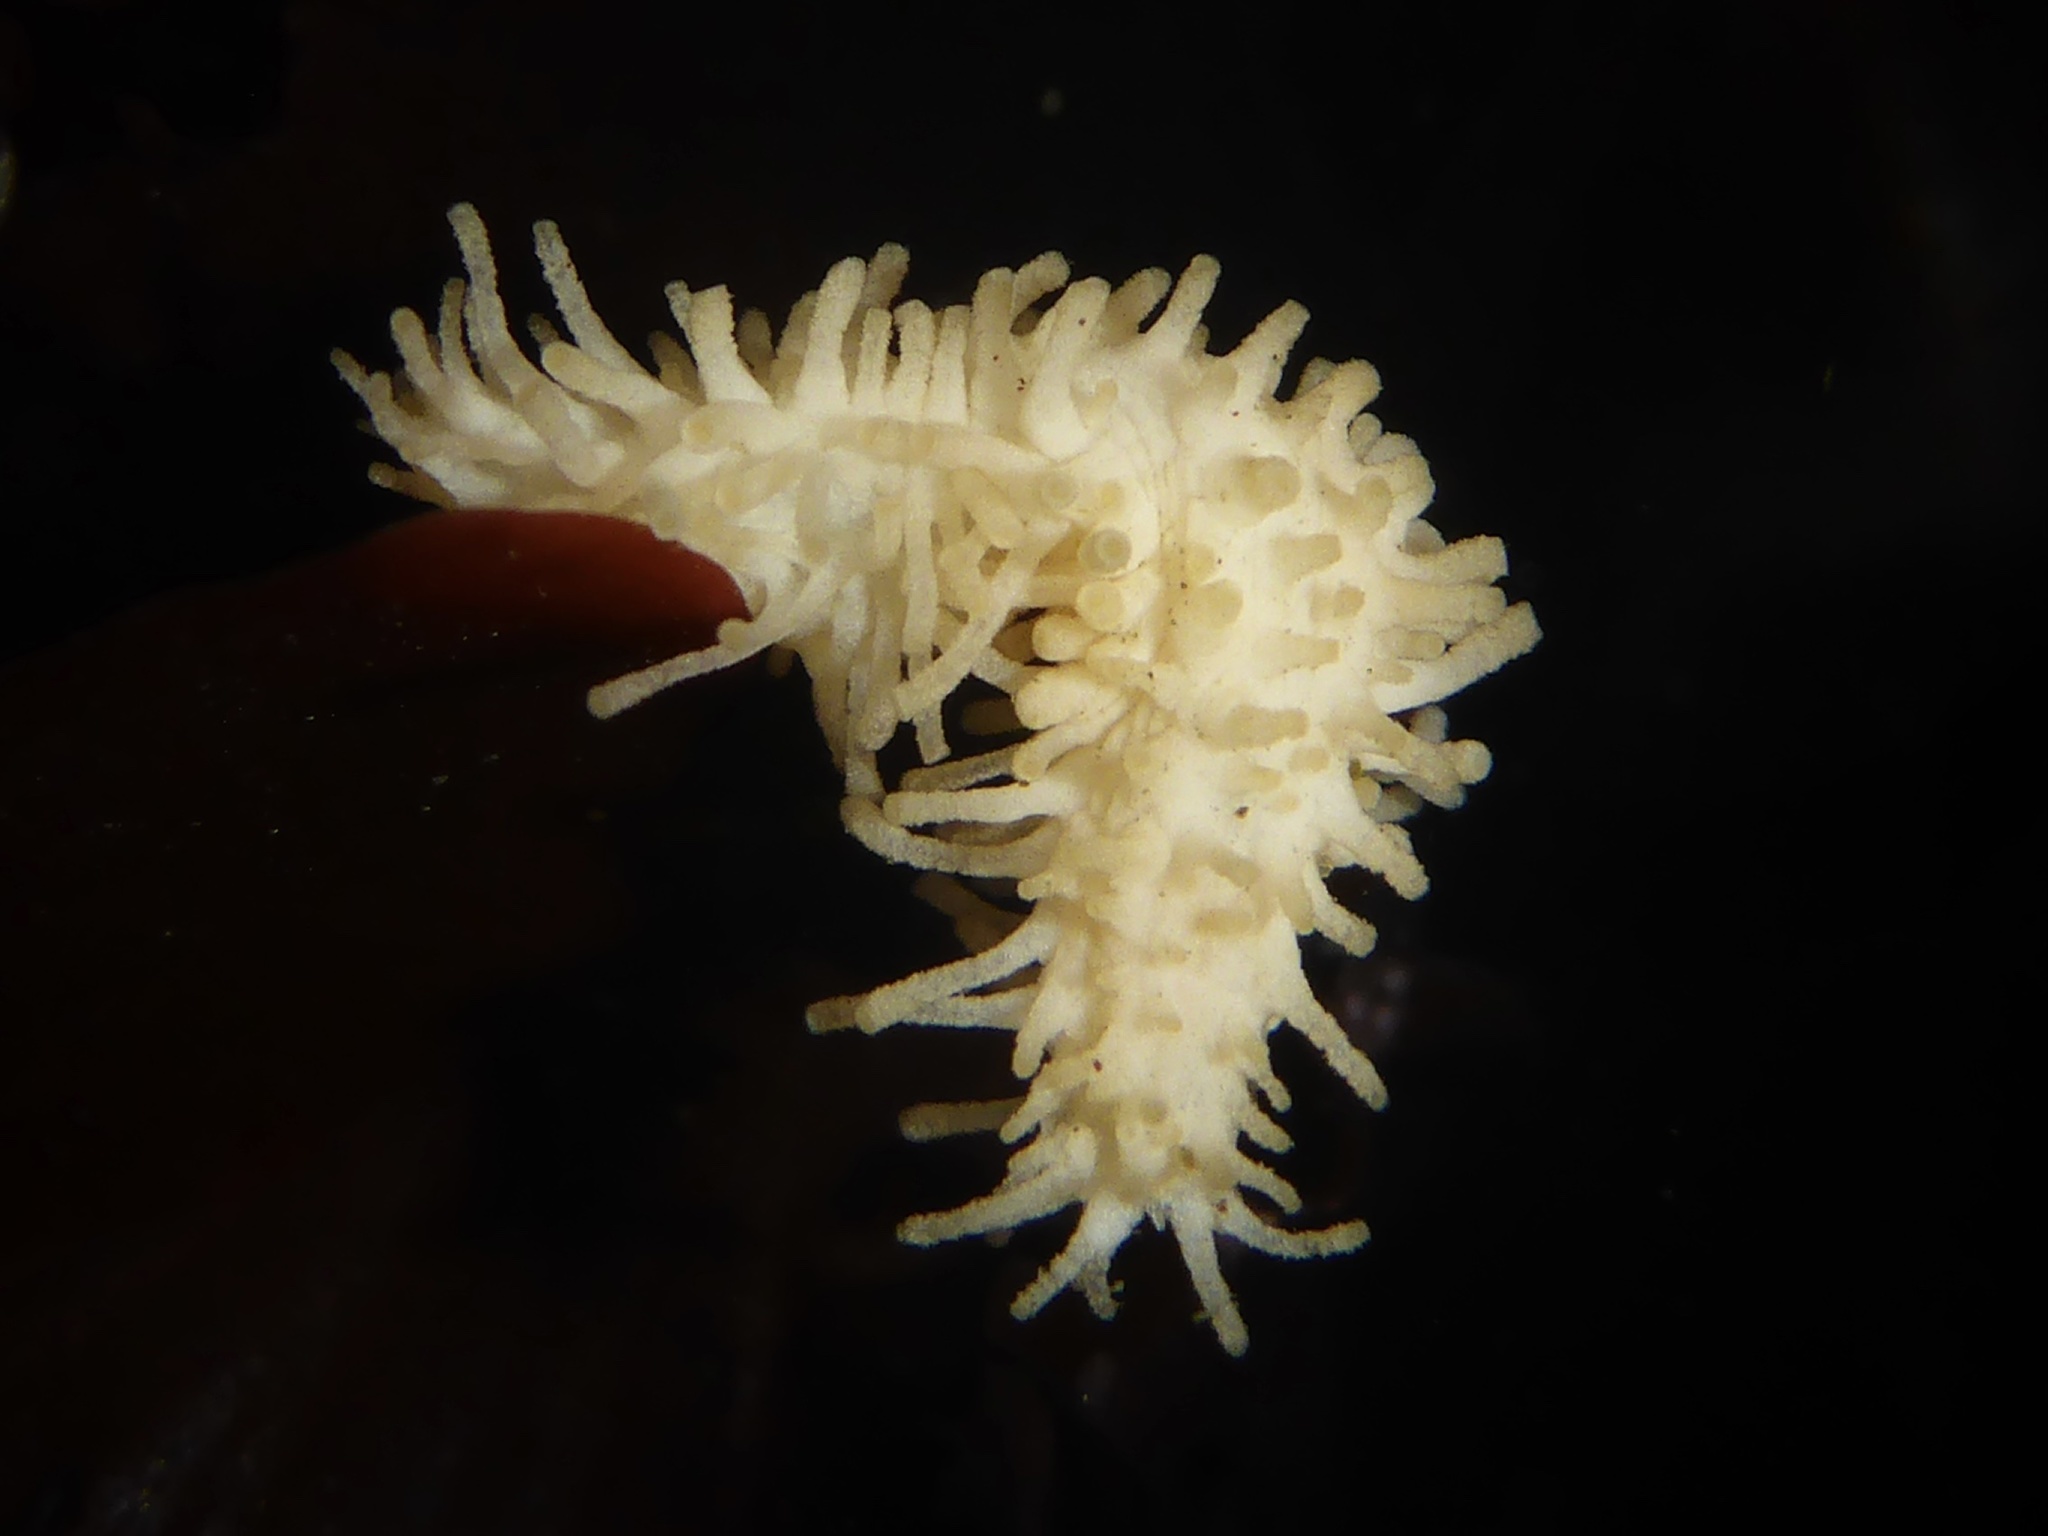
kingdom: Animalia
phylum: Echinodermata
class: Holothuroidea
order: Dendrochirotida
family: Sclerodactylidae
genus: Eupentacta
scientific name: Eupentacta quinquesemita
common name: Pentamerous sea cucumber
